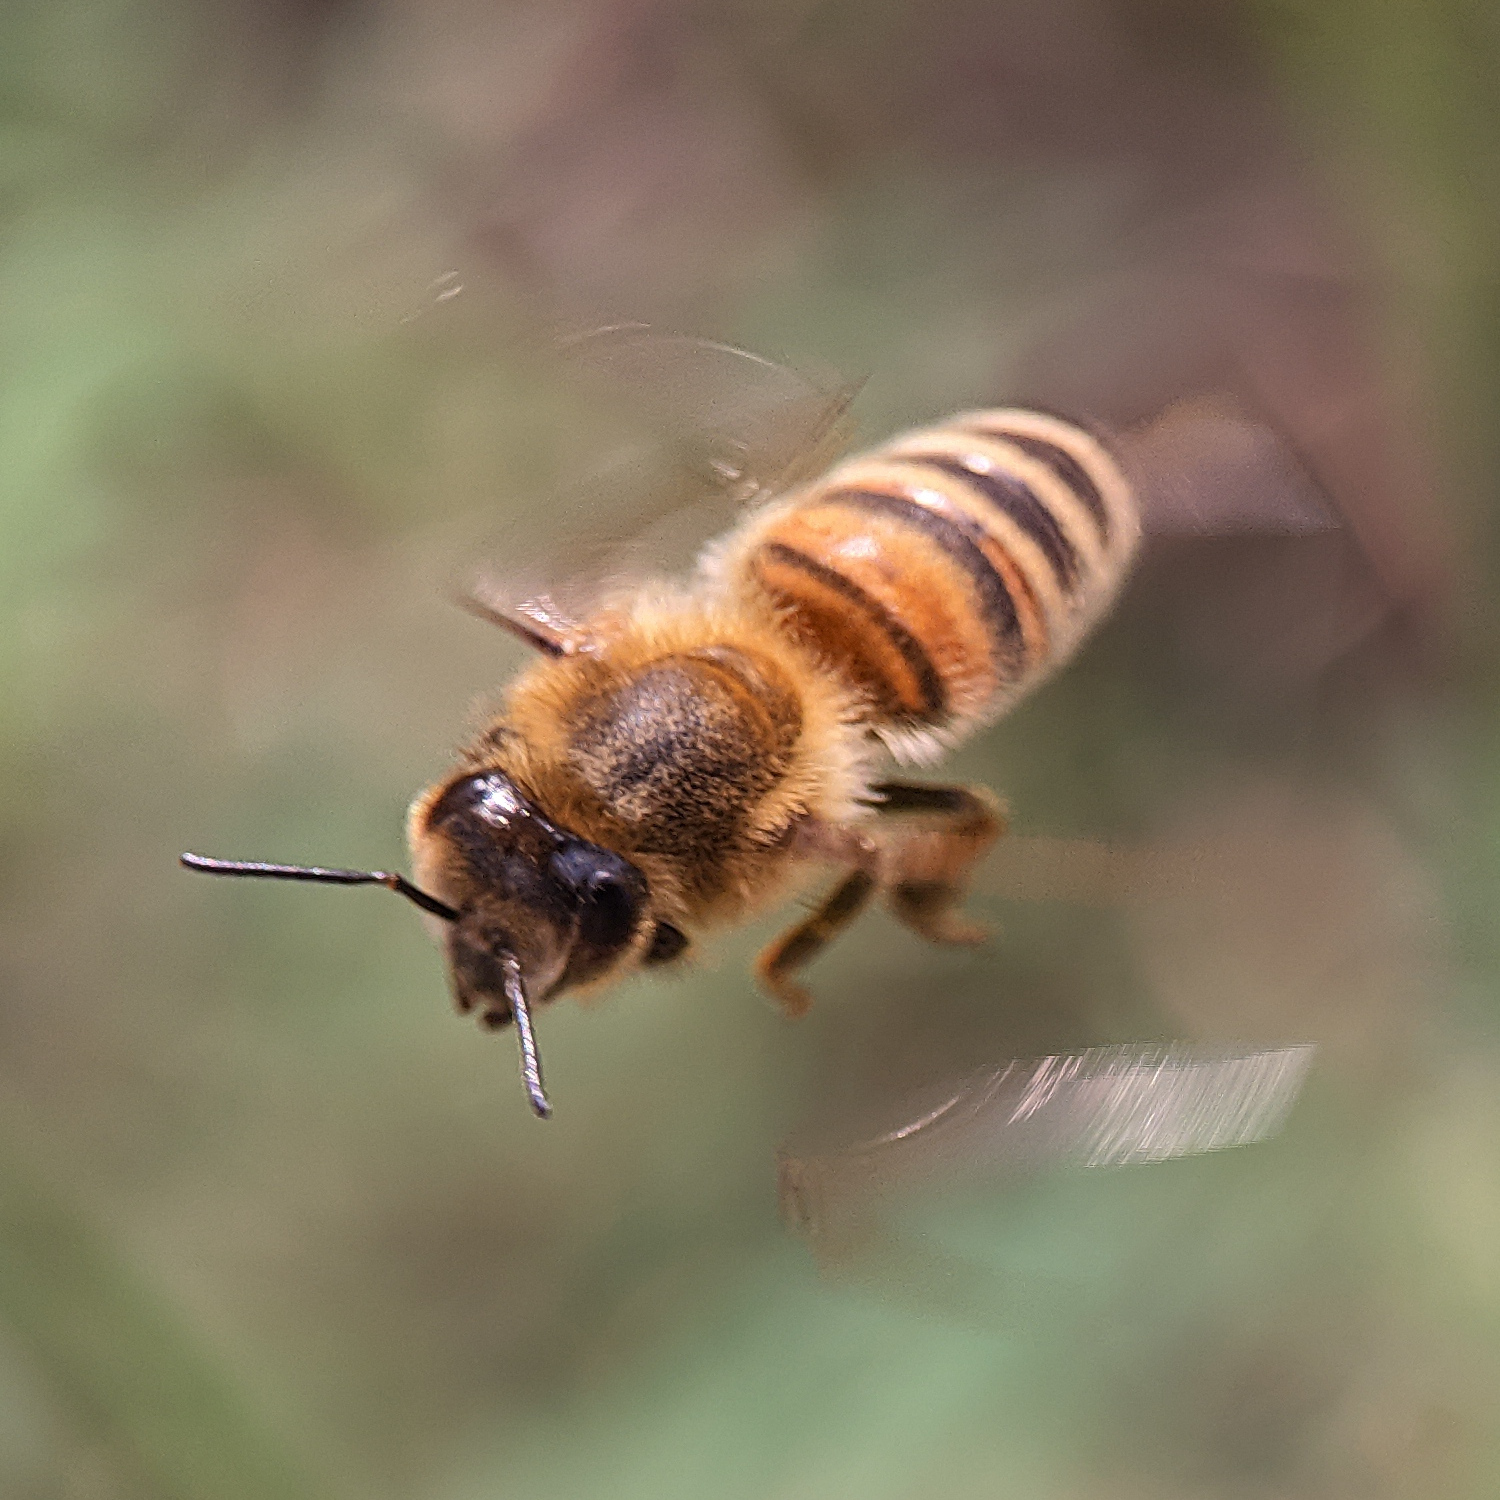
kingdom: Animalia
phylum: Arthropoda
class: Insecta
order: Hymenoptera
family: Apidae
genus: Apis
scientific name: Apis mellifera
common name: Honey bee
